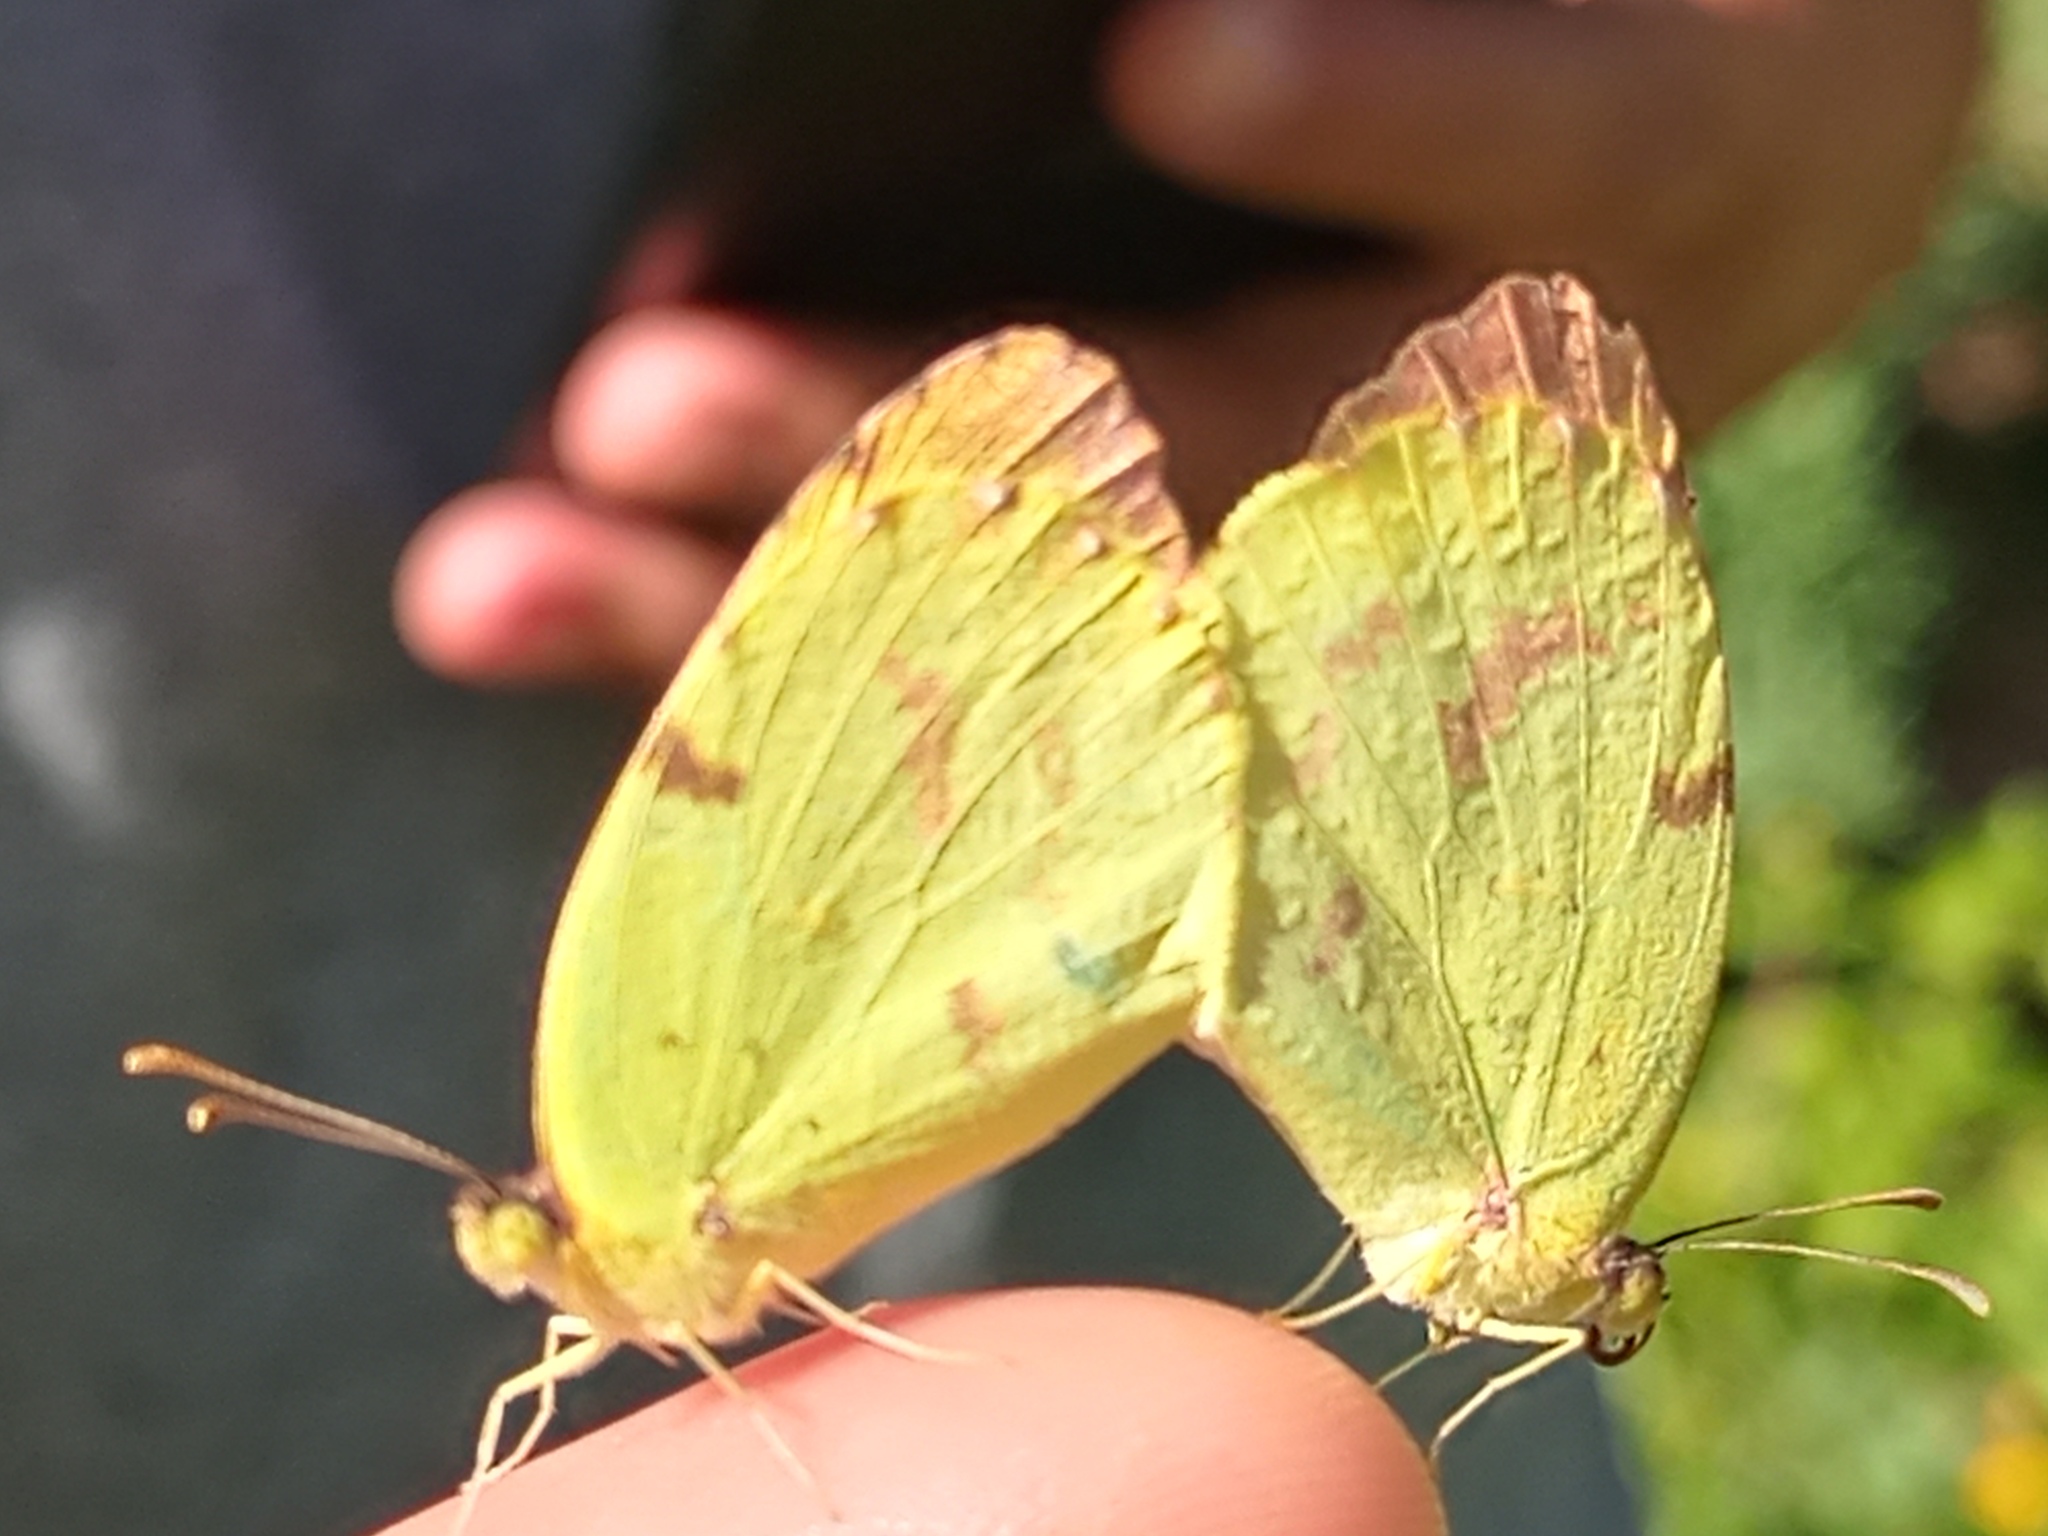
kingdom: Animalia
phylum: Arthropoda
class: Insecta
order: Lepidoptera
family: Pieridae
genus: Teriocolias
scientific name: Teriocolias
